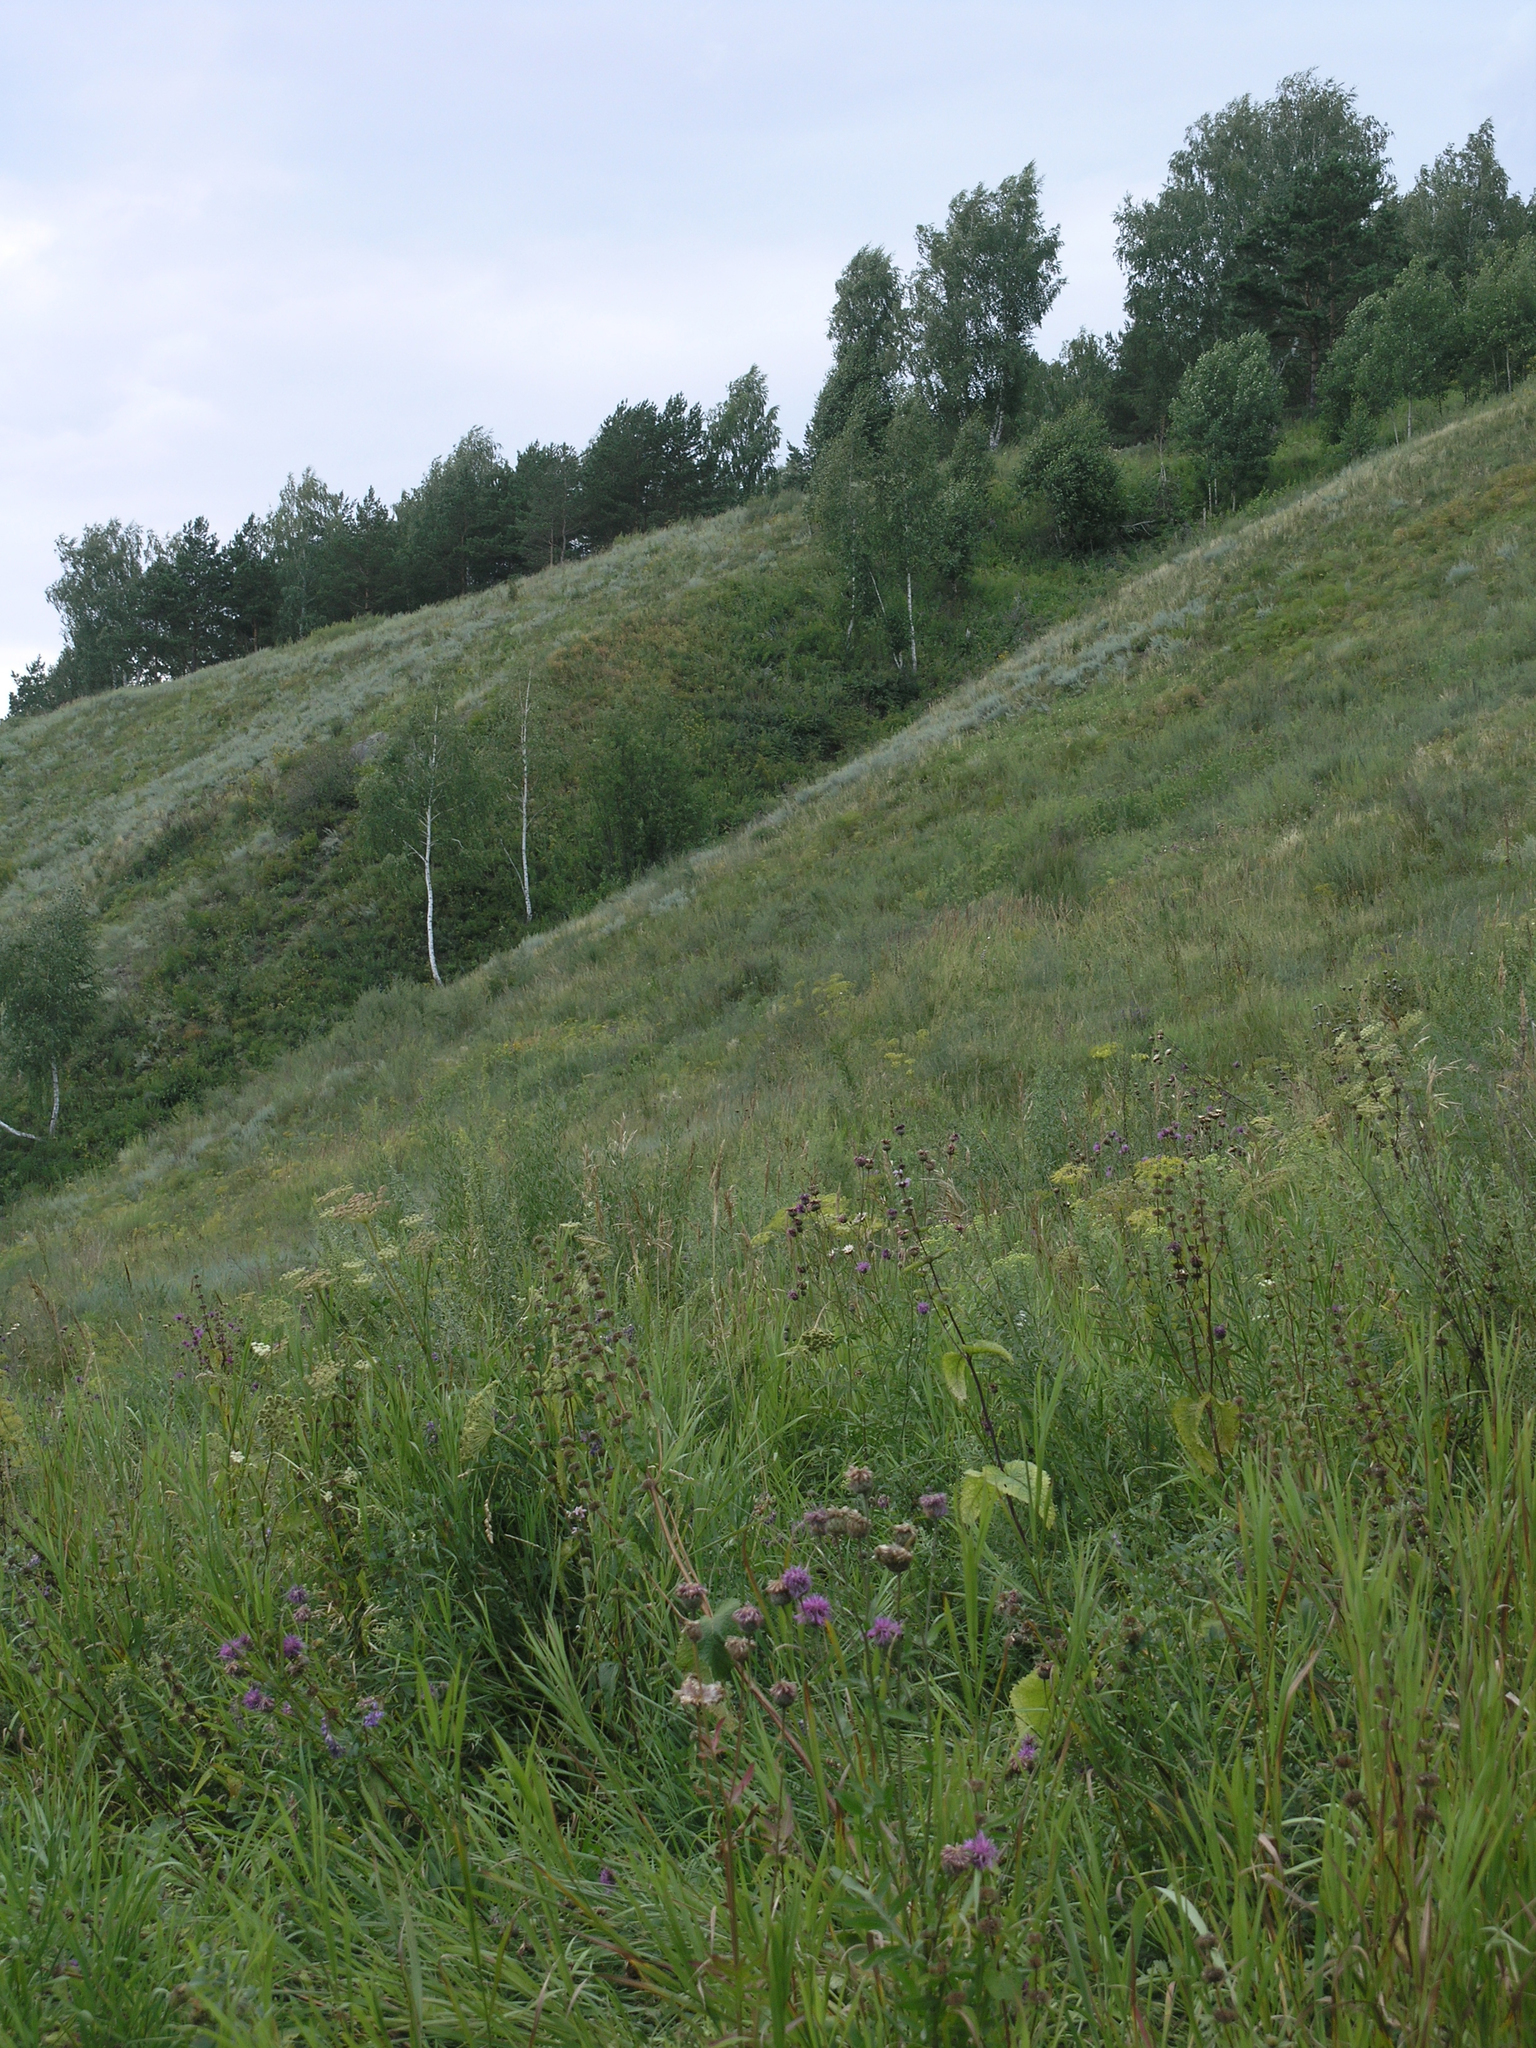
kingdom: Plantae
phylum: Tracheophyta
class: Magnoliopsida
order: Asterales
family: Asteraceae
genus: Artemisia
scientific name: Artemisia frigida
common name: Prairie sagewort
